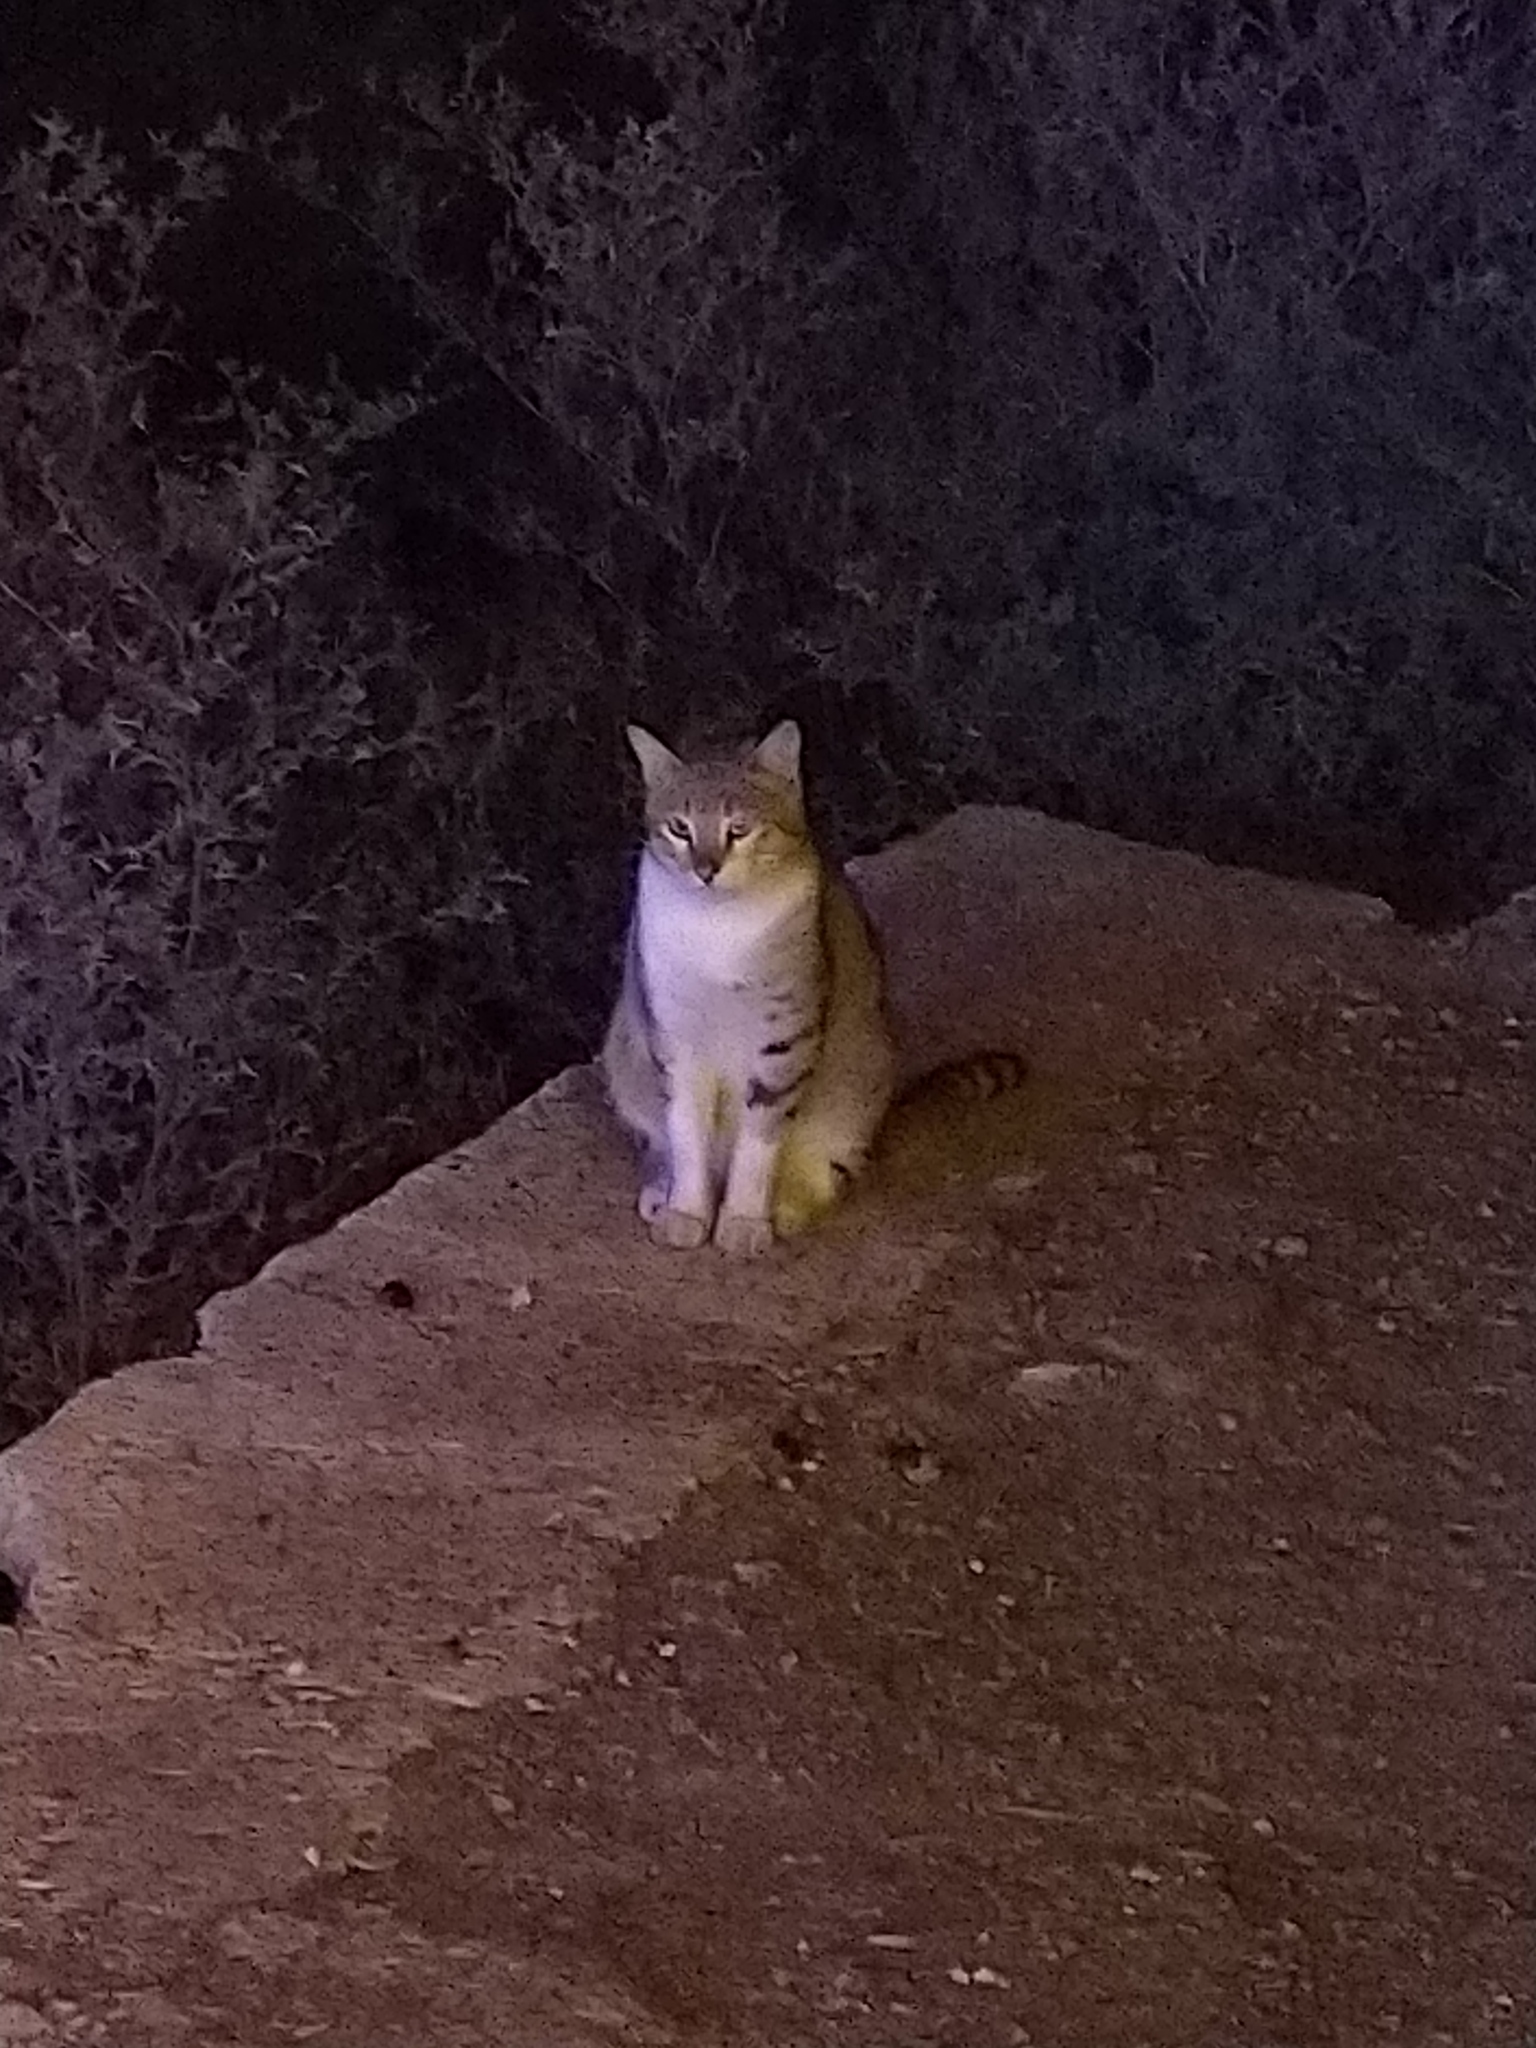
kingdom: Animalia
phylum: Chordata
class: Mammalia
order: Carnivora
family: Felidae
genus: Felis
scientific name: Felis catus
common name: Domestic cat
